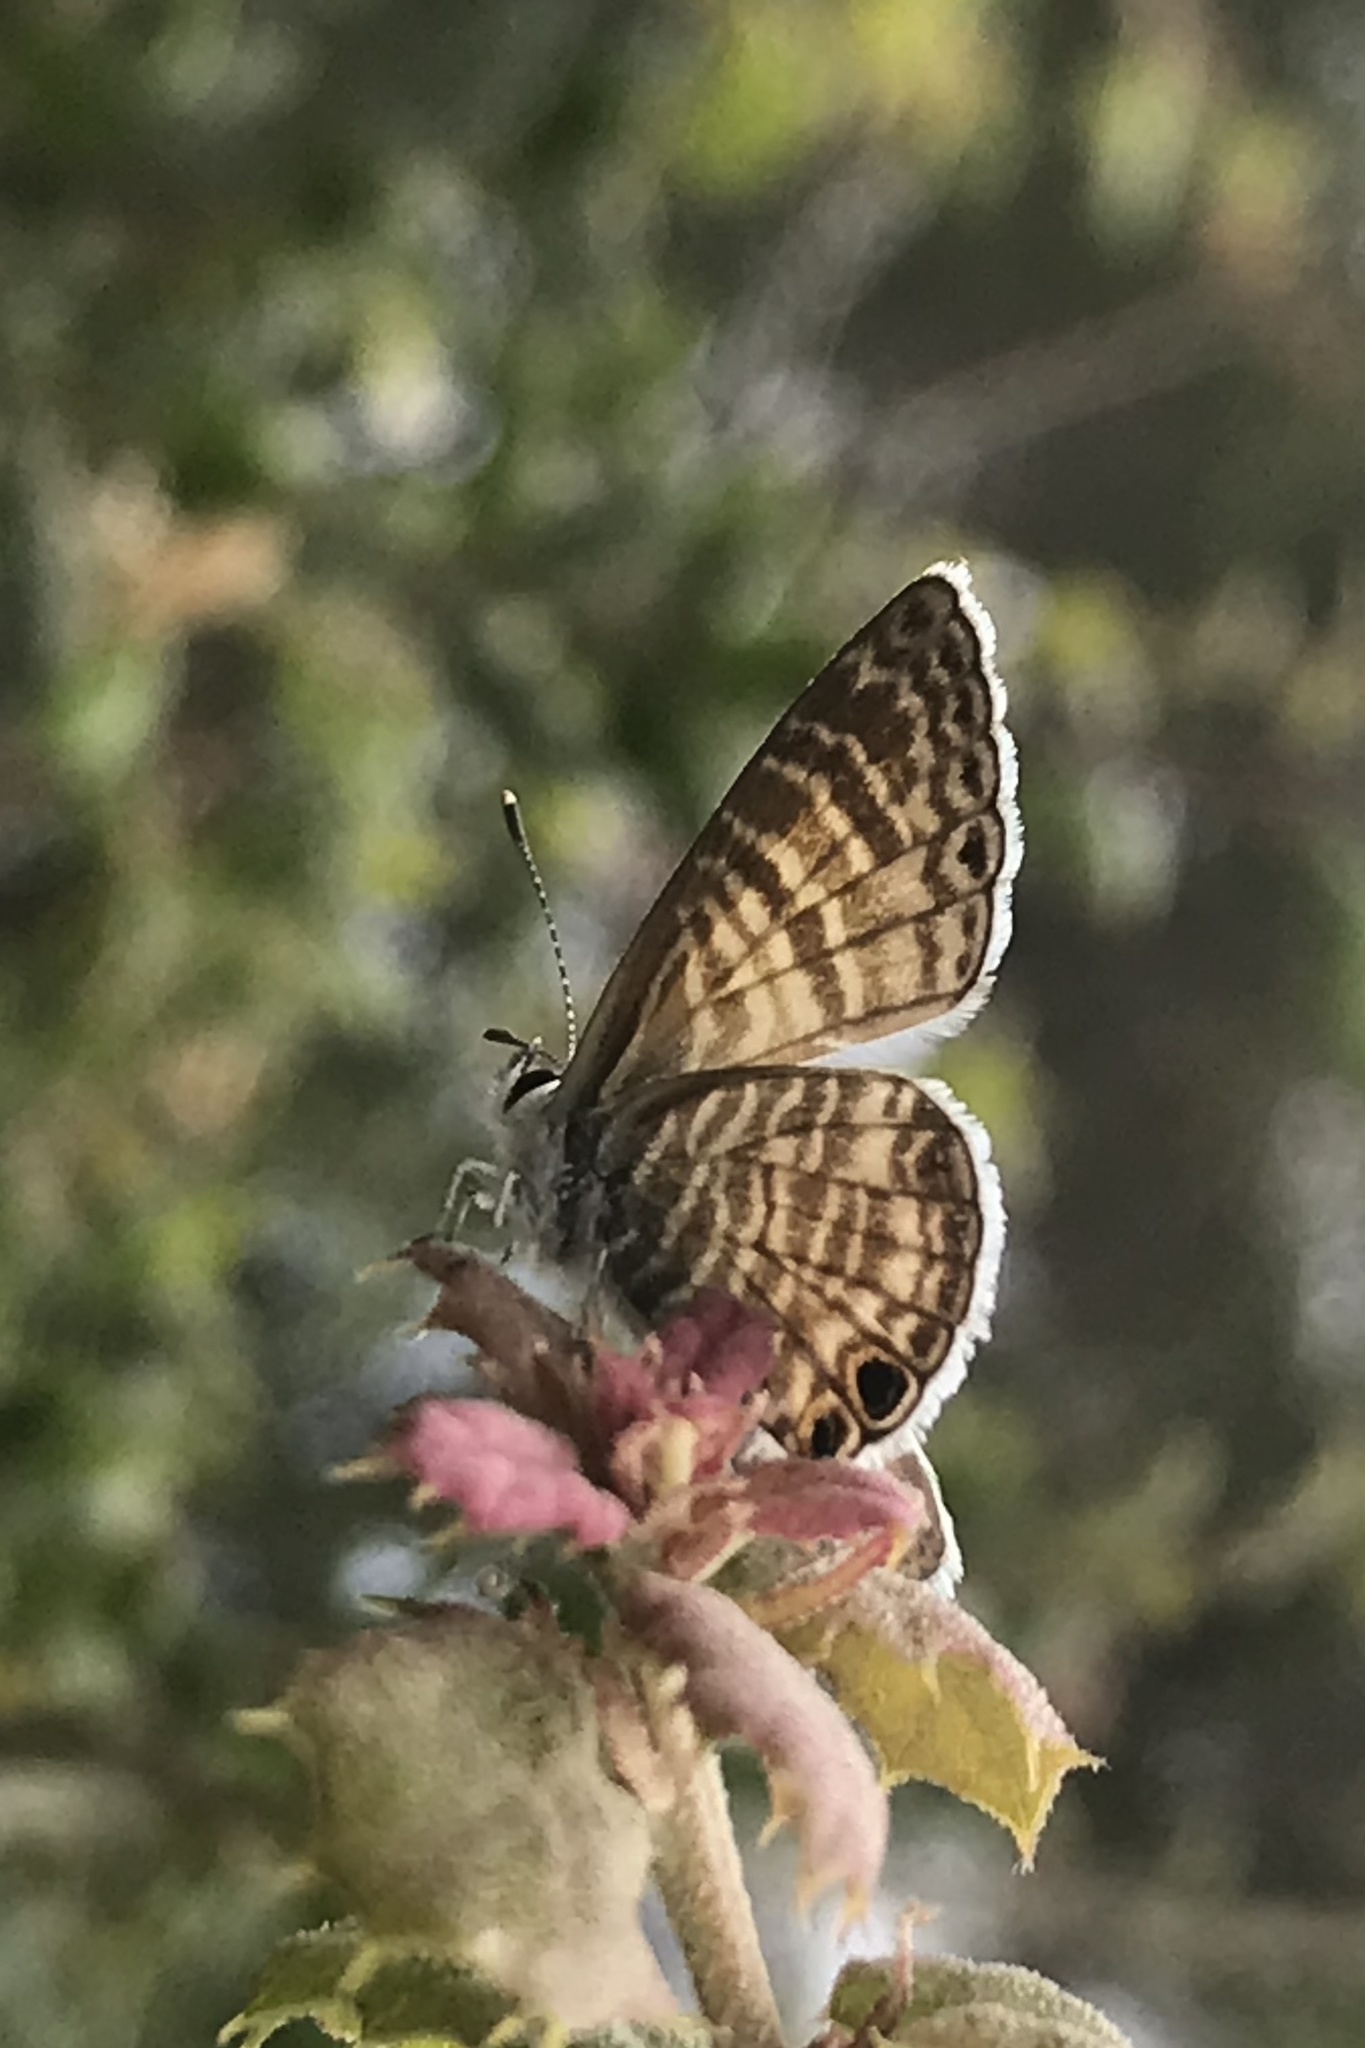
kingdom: Animalia
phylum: Arthropoda
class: Insecta
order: Lepidoptera
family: Lycaenidae
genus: Leptotes
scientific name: Leptotes marina
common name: Marine blue
